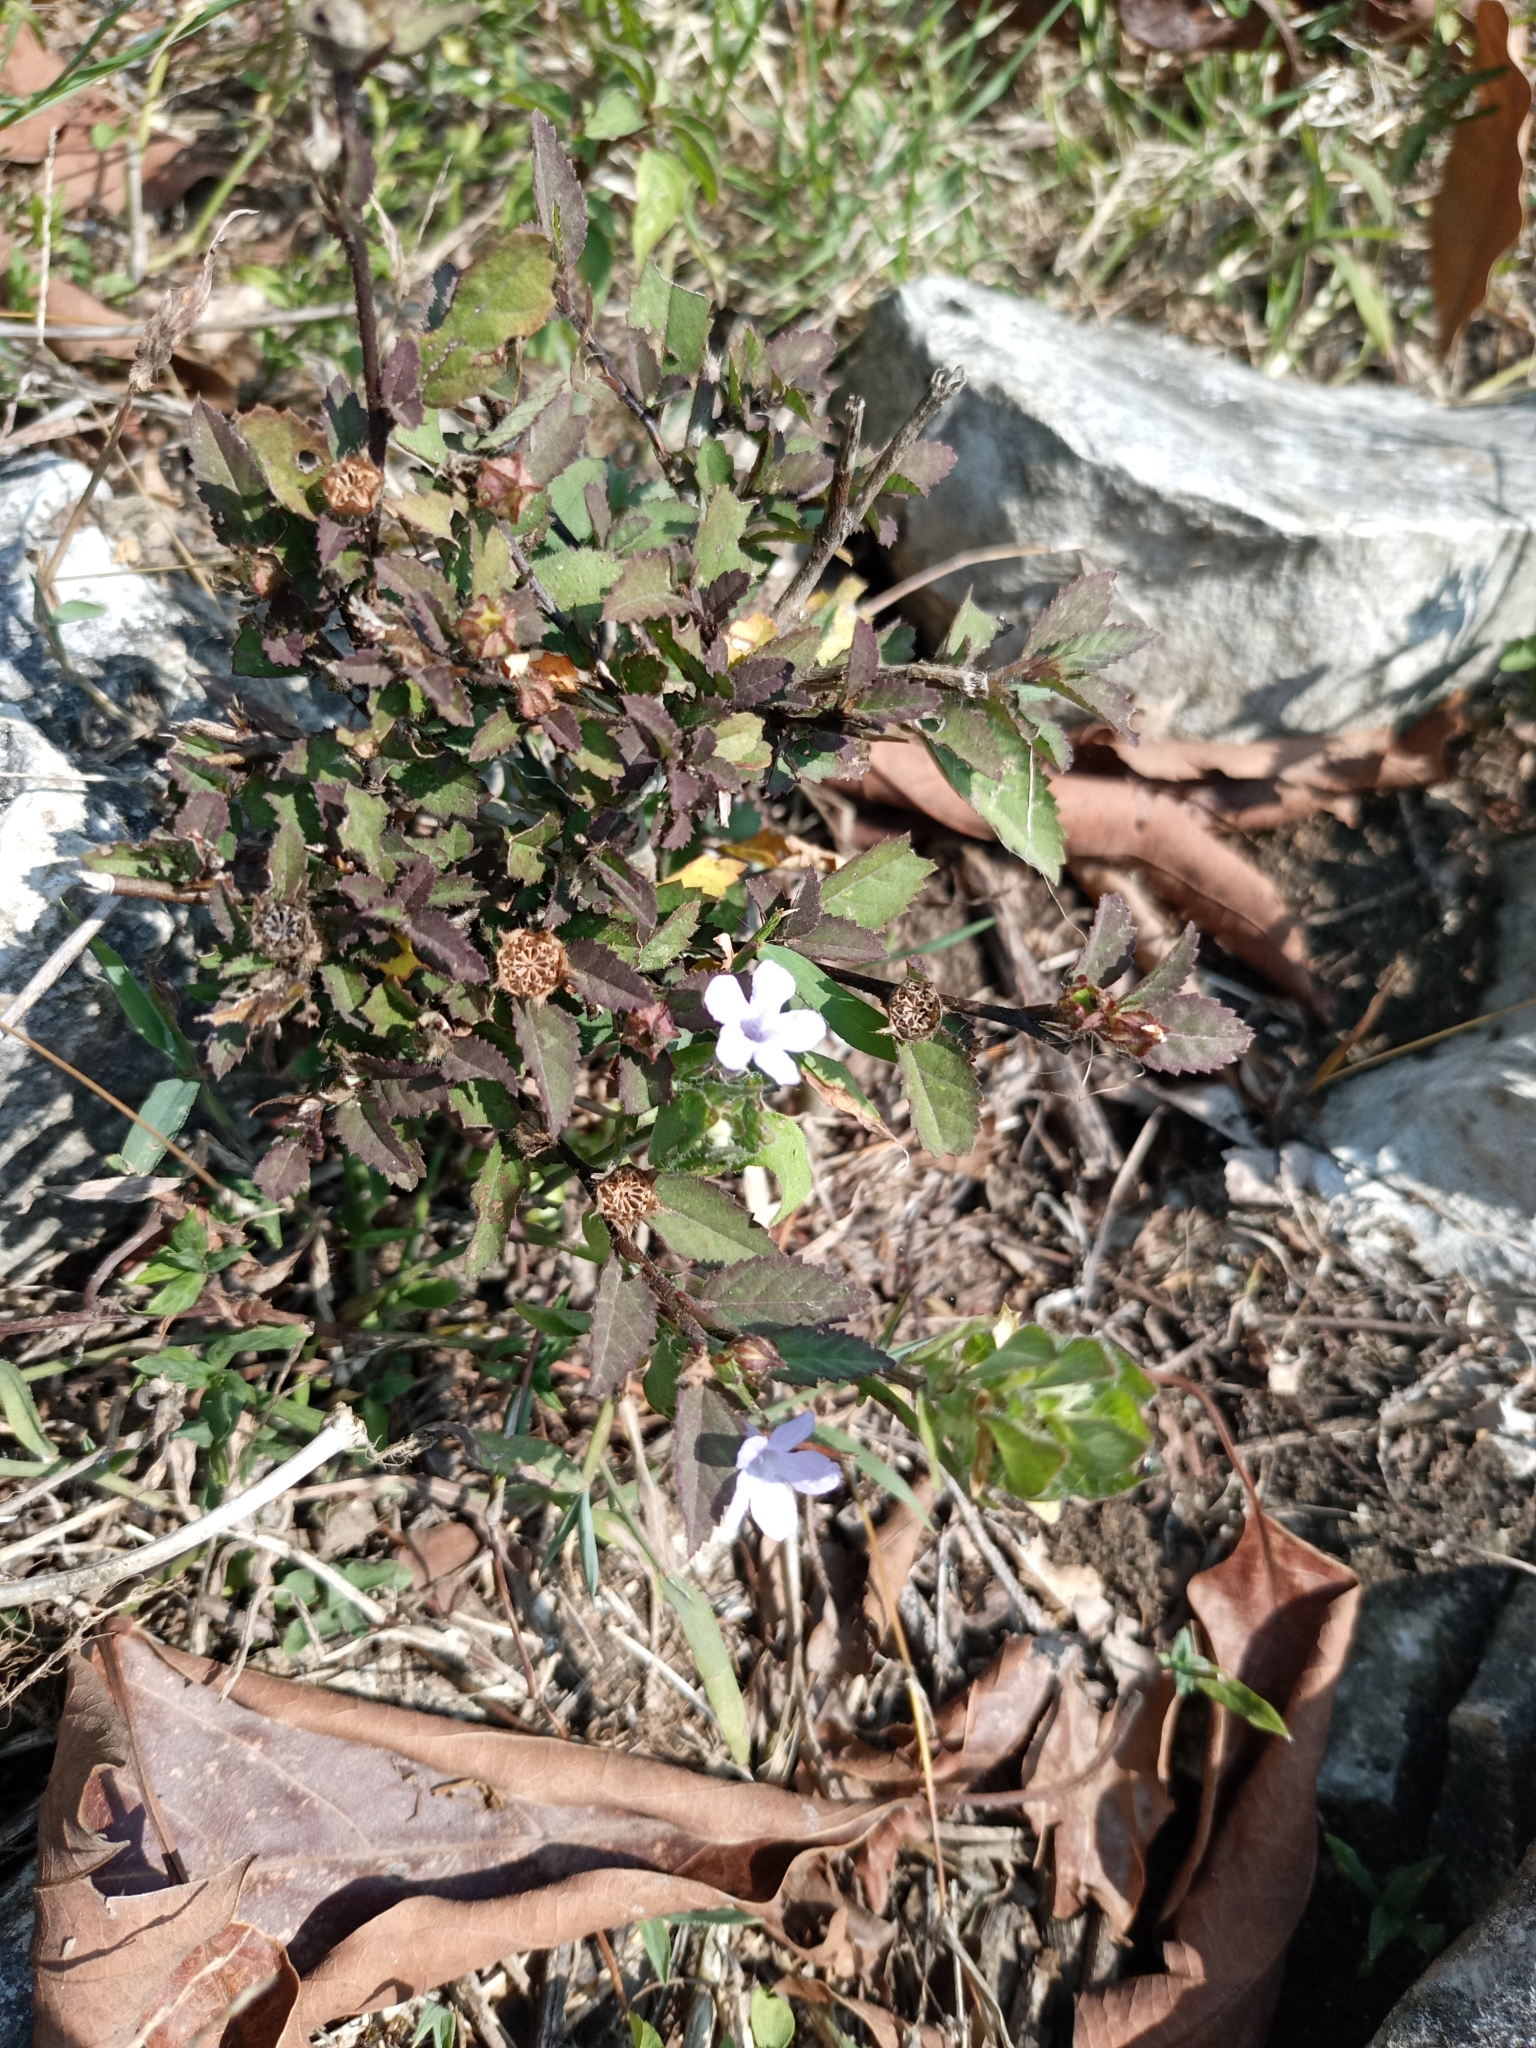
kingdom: Plantae
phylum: Tracheophyta
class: Magnoliopsida
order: Lamiales
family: Acanthaceae
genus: Ruellia
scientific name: Ruellia blechum
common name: Browne's blechum
